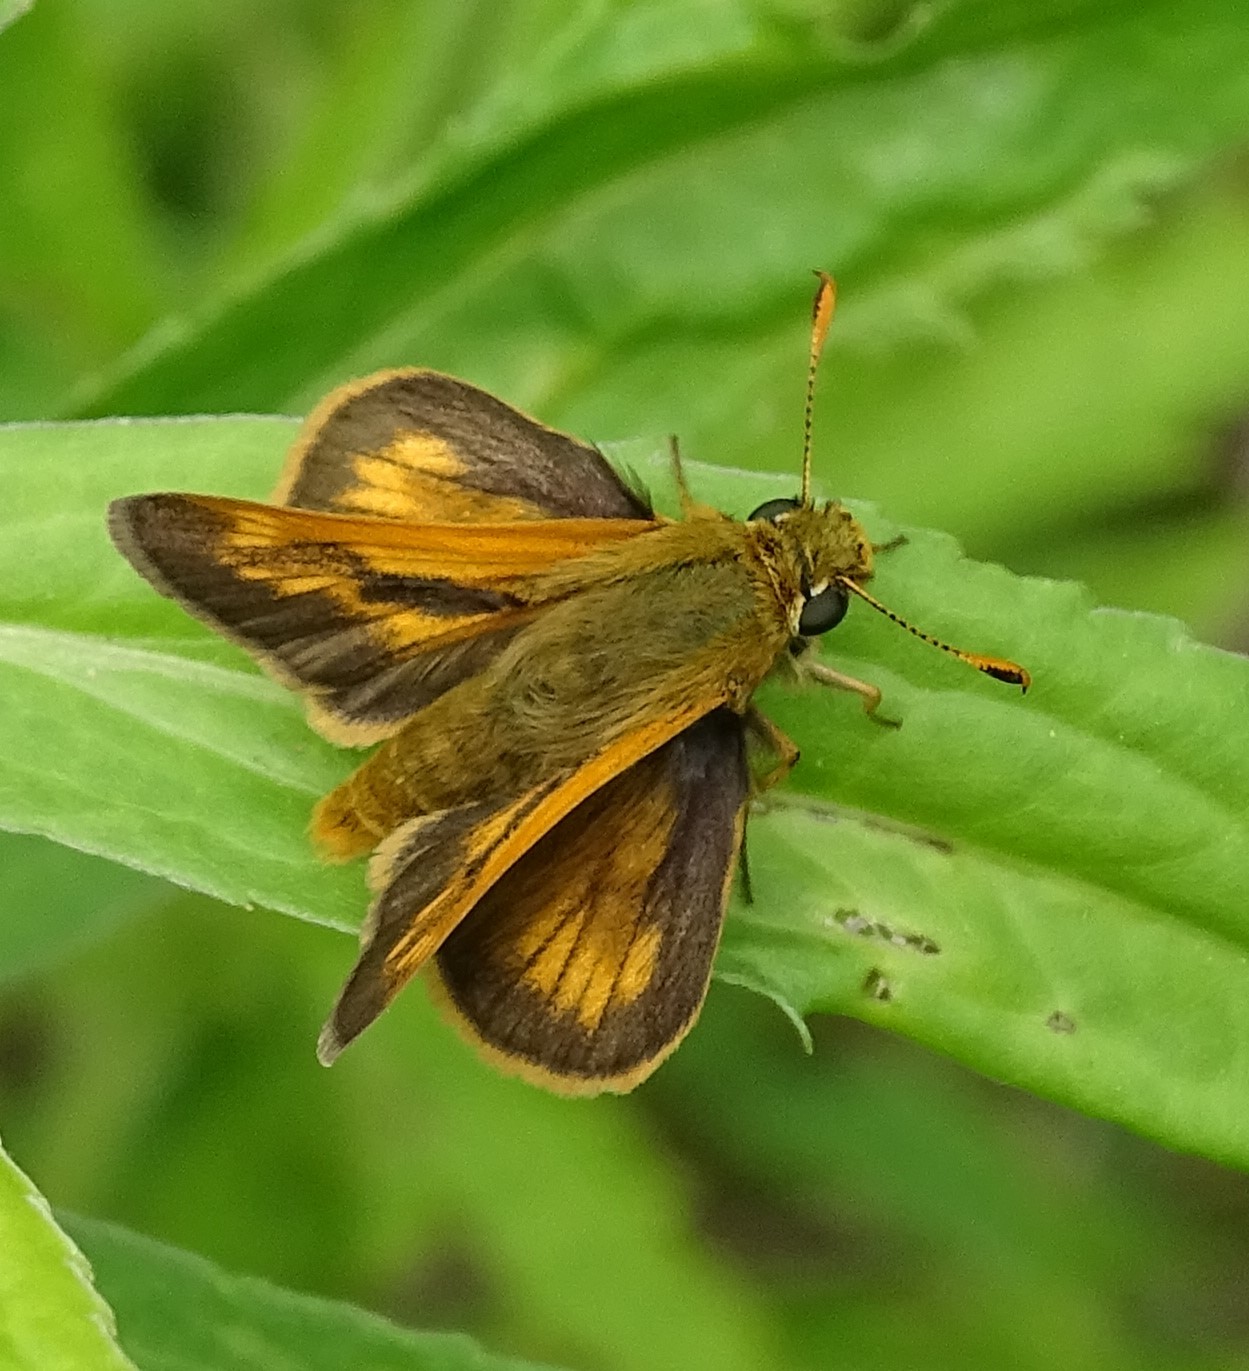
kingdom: Animalia
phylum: Arthropoda
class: Insecta
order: Lepidoptera
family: Hesperiidae
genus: Polites
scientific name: Polites mystic
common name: Long dash
